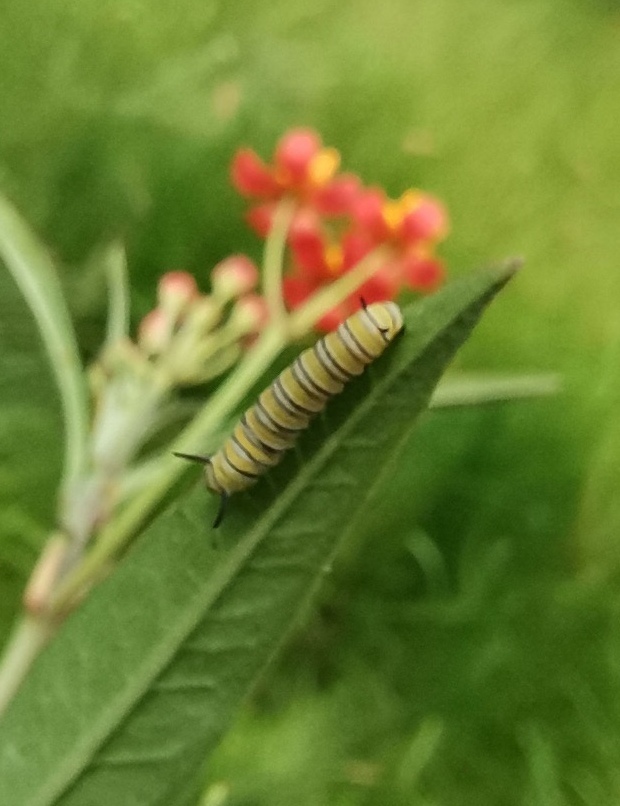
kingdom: Plantae
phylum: Tracheophyta
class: Magnoliopsida
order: Gentianales
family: Apocynaceae
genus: Asclepias
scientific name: Asclepias curassavica
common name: Bloodflower
